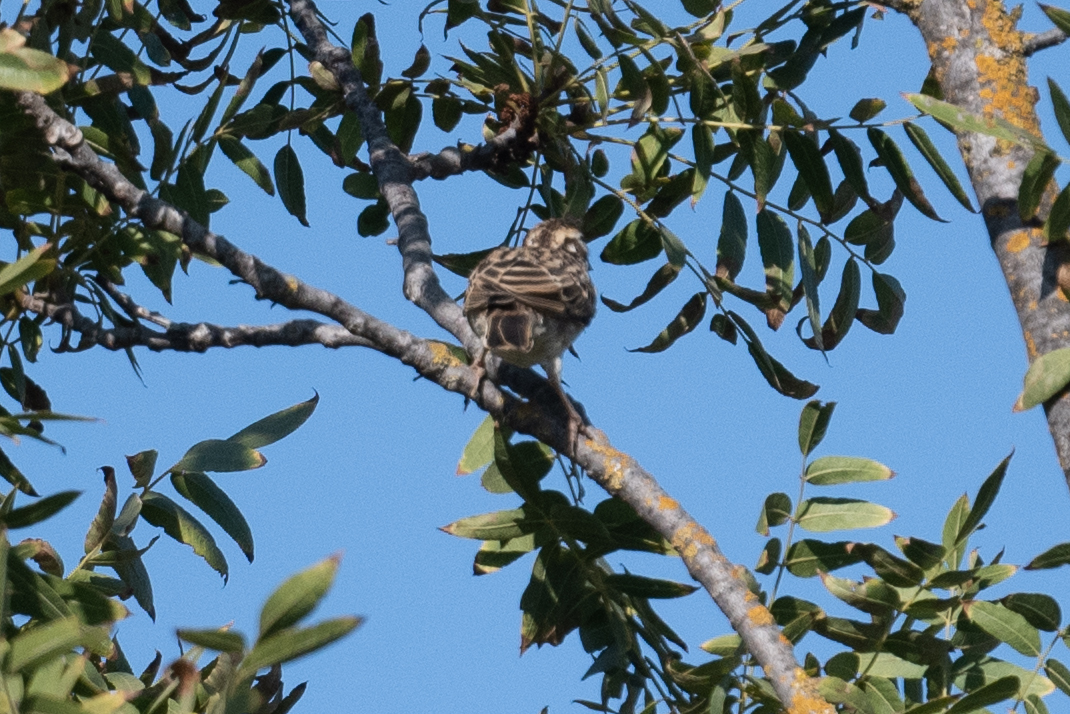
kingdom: Animalia
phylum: Chordata
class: Aves
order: Passeriformes
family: Passerellidae
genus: Chondestes
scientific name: Chondestes grammacus
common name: Lark sparrow
